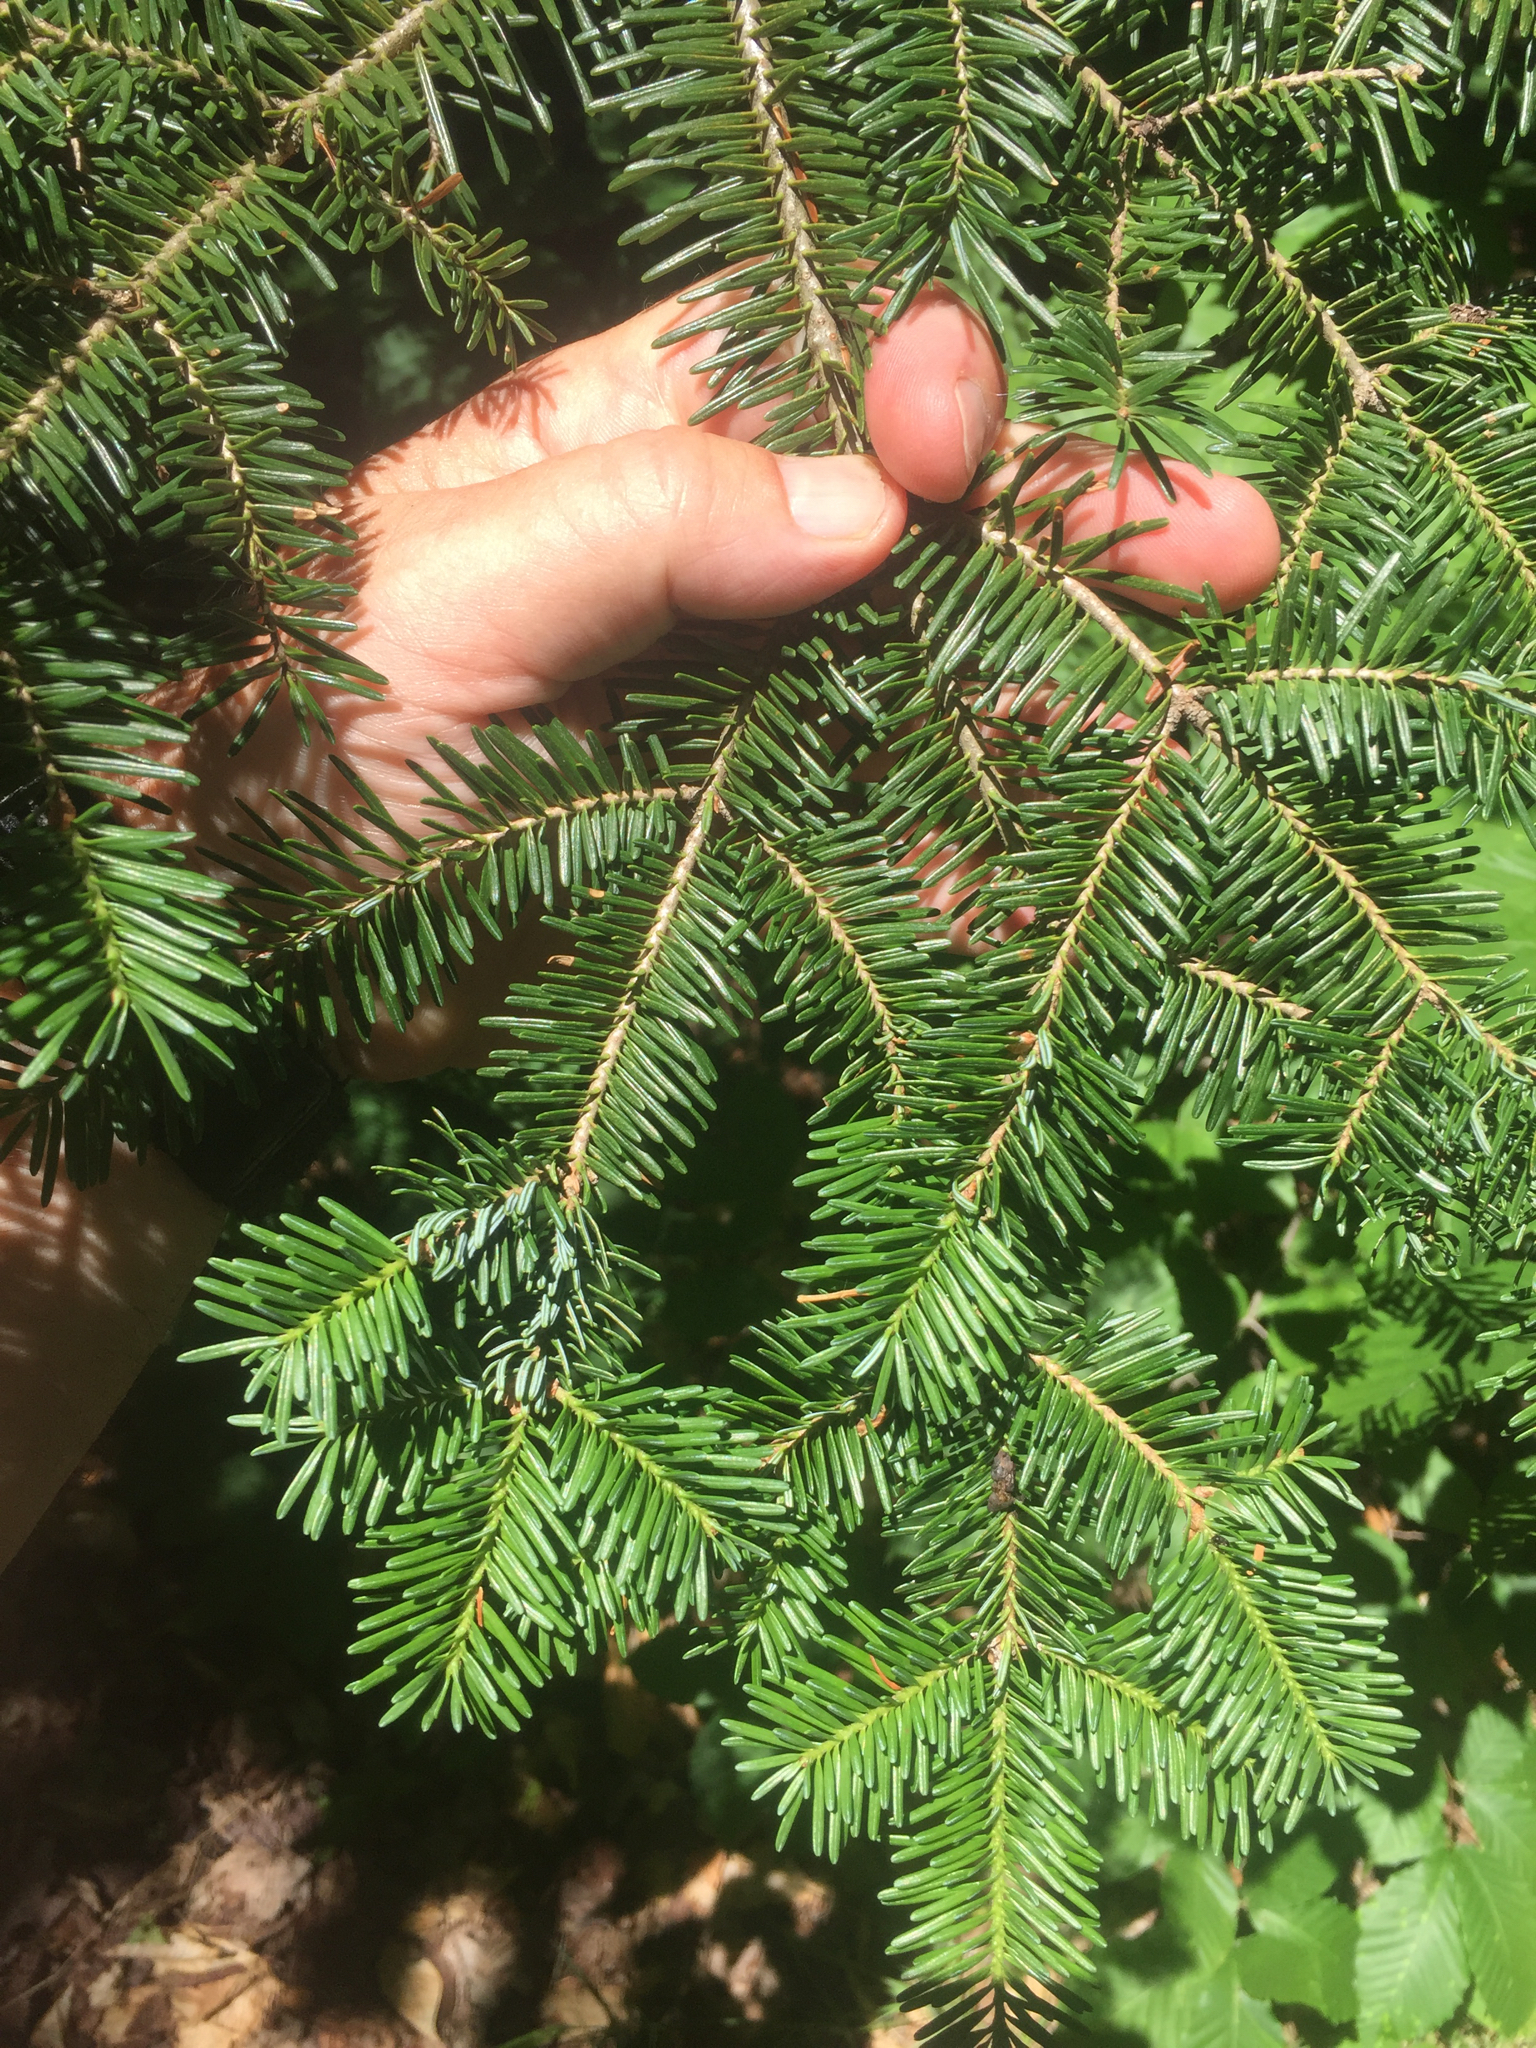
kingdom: Plantae
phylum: Tracheophyta
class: Pinopsida
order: Pinales
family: Pinaceae
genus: Abies
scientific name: Abies balsamea
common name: Balsam fir
